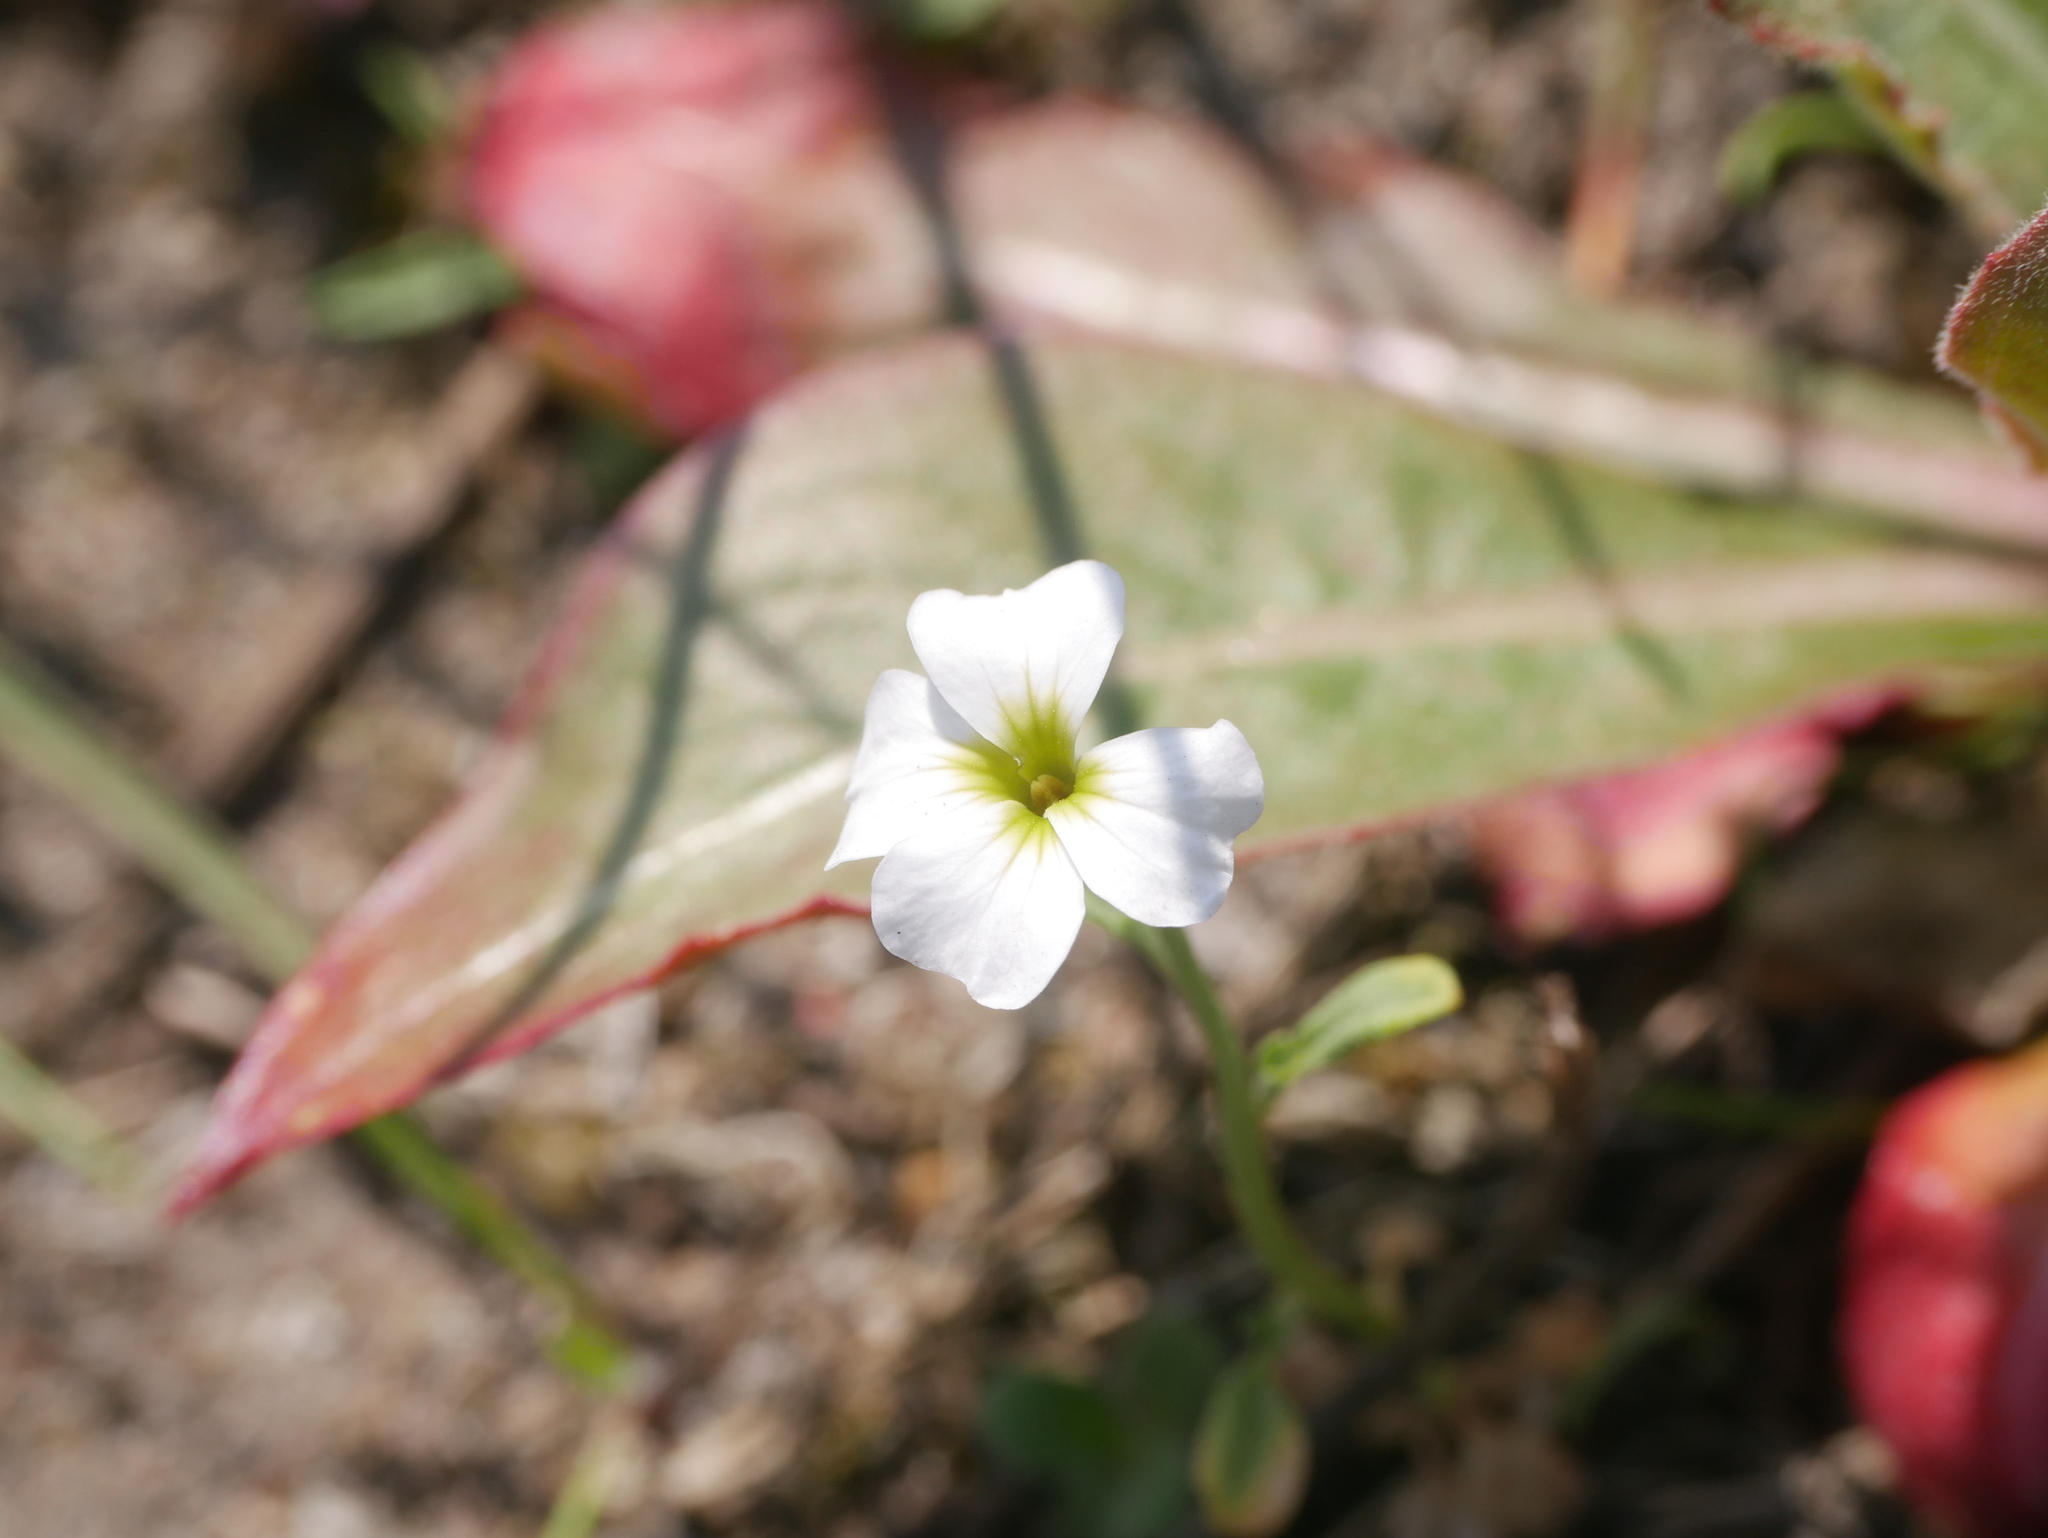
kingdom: Plantae
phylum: Tracheophyta
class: Magnoliopsida
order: Brassicales
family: Brassicaceae
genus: Malcolmia
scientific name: Malcolmia maritima
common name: Virginia stock
